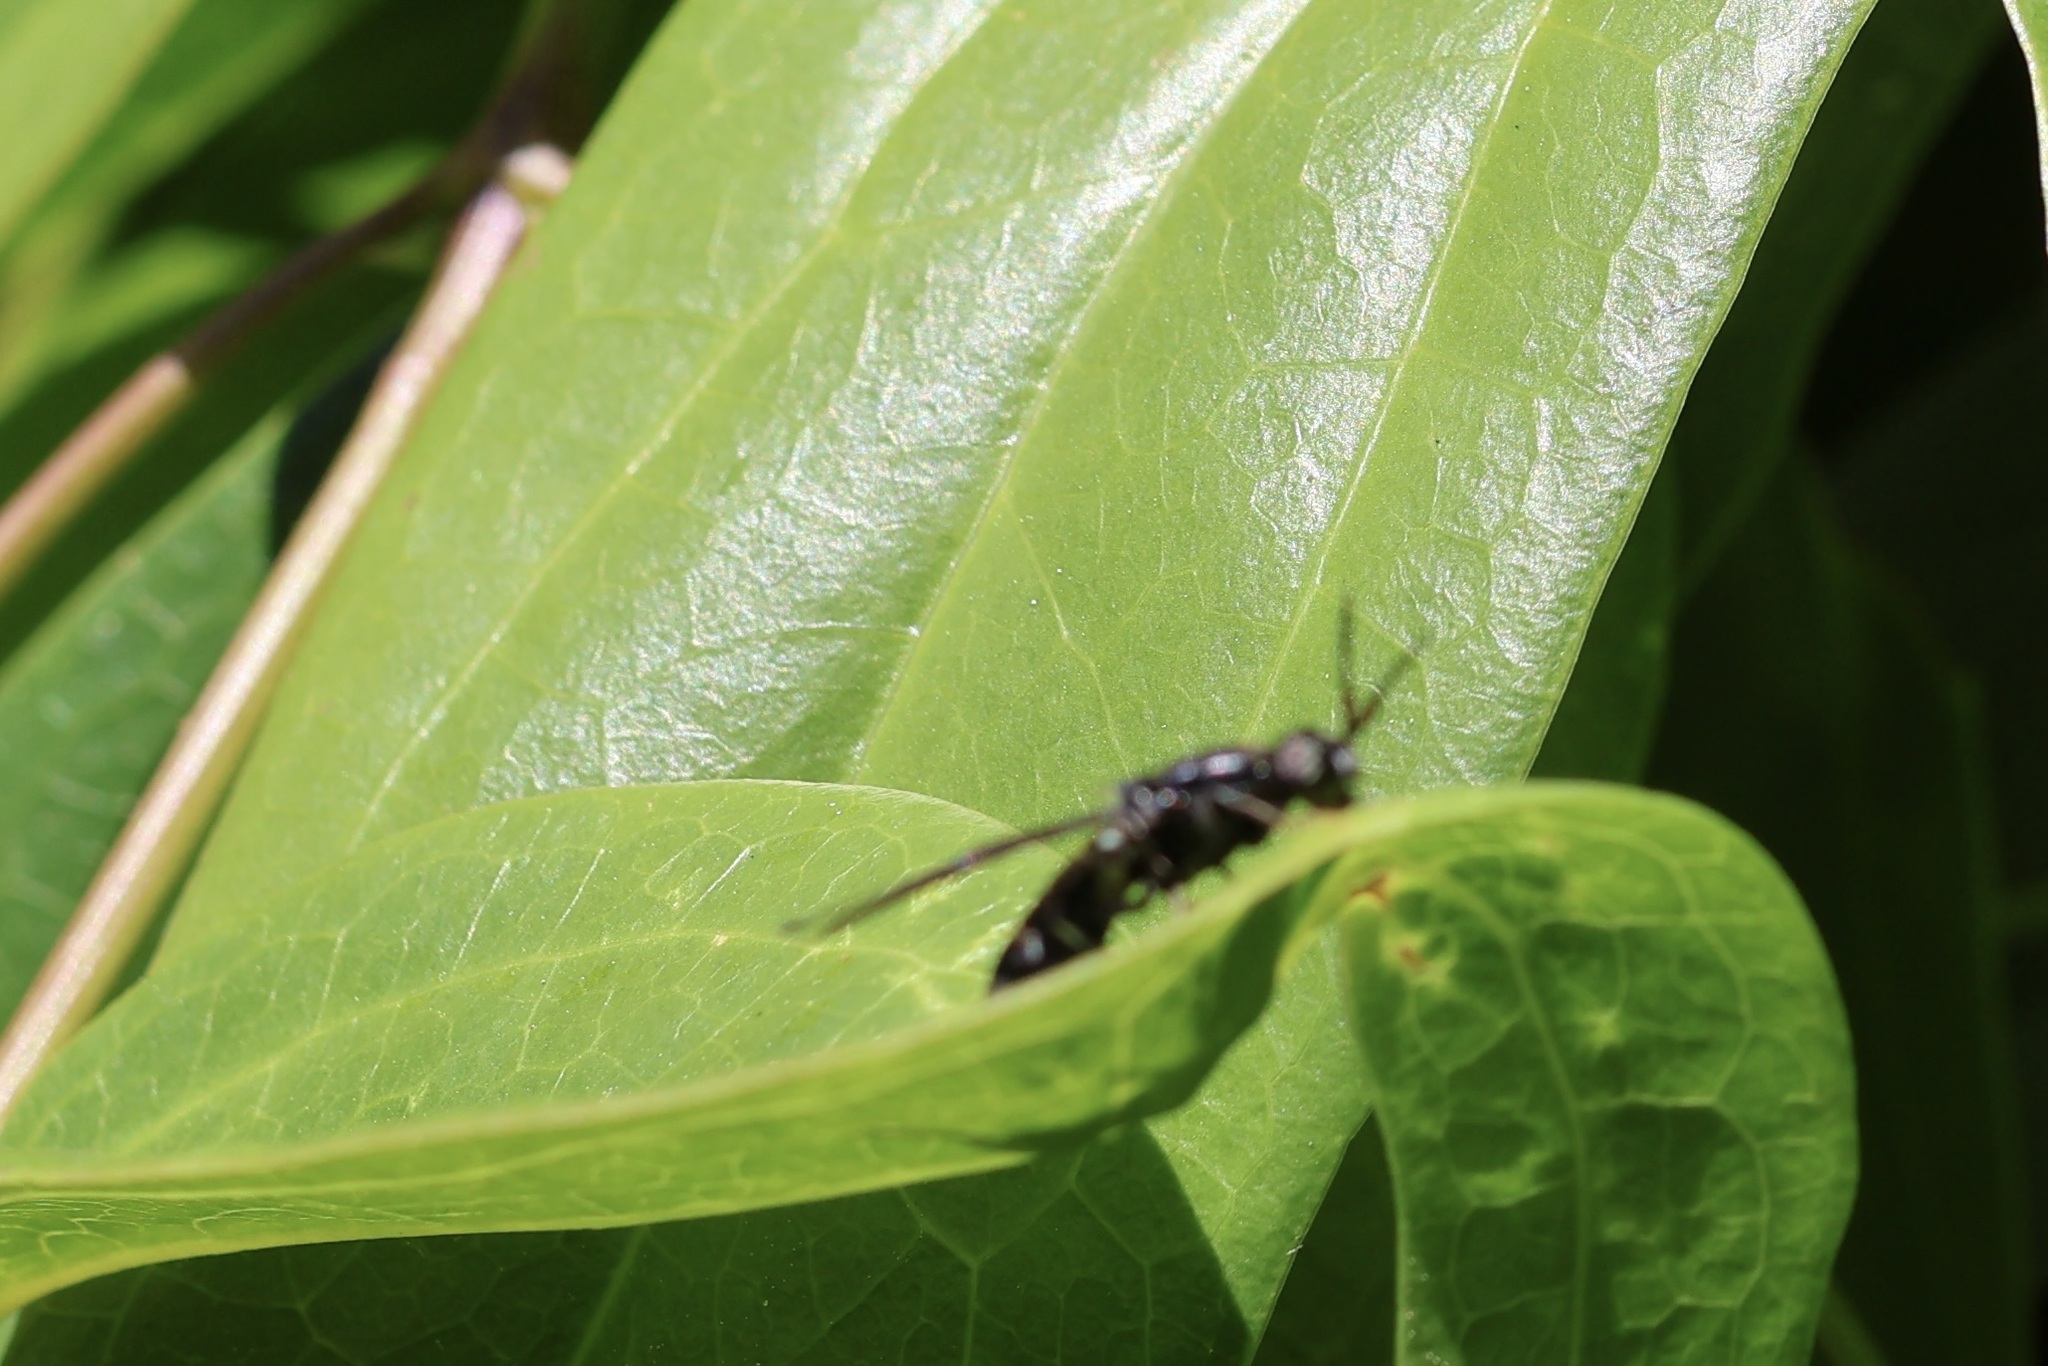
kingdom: Animalia
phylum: Arthropoda
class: Insecta
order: Diptera
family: Stratiomyidae
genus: Hermetia
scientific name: Hermetia illucens
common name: Black soldier fly
